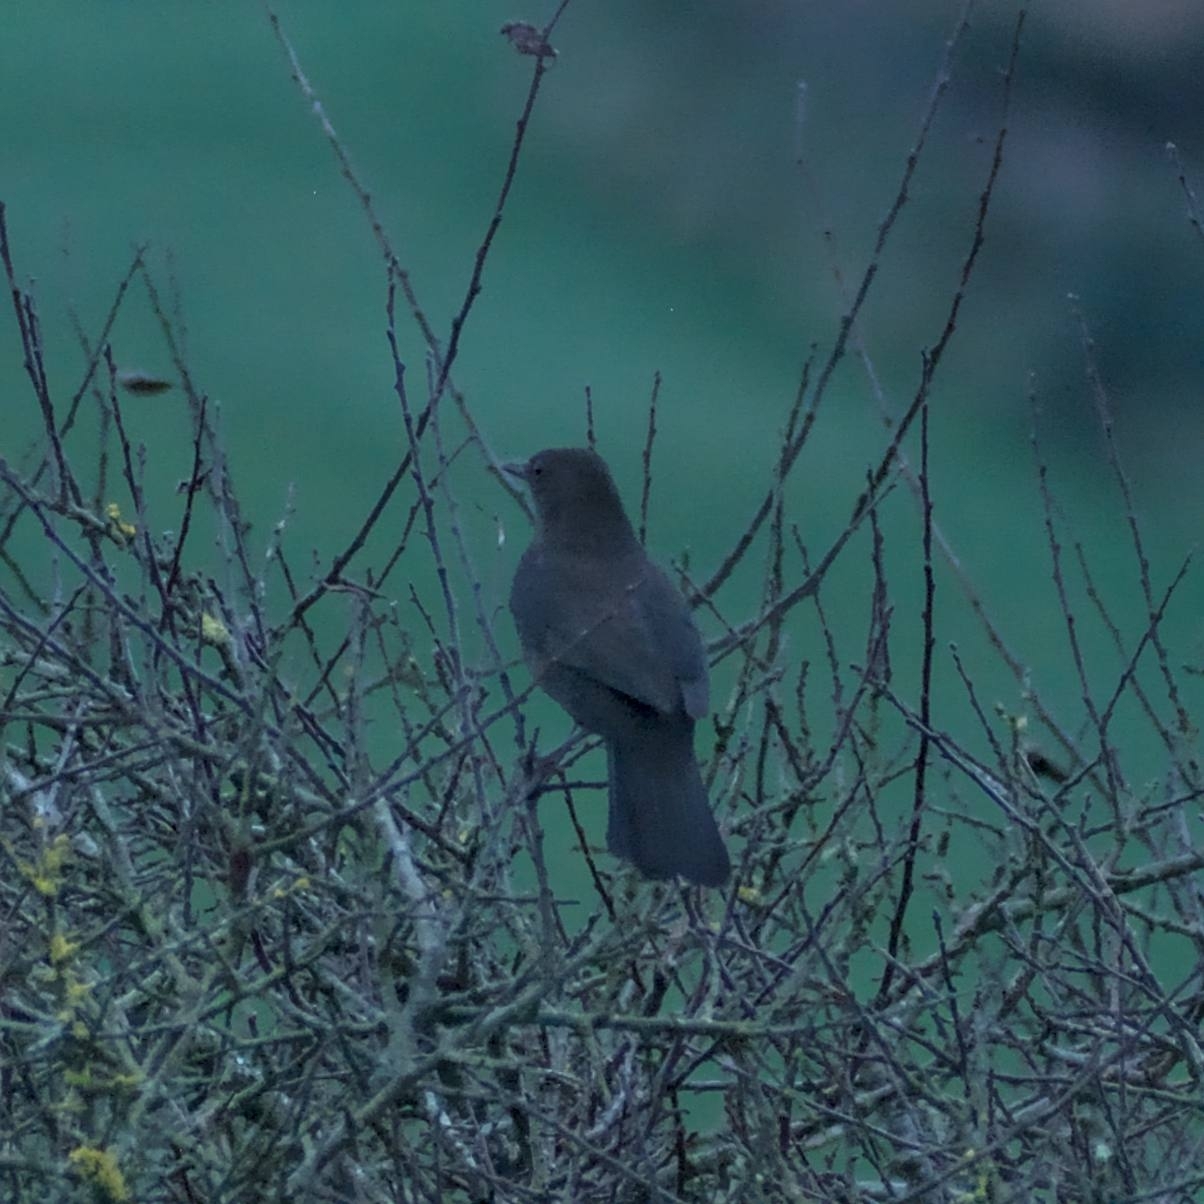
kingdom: Animalia
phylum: Chordata
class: Aves
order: Passeriformes
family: Turdidae
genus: Turdus
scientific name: Turdus merula
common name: Common blackbird
